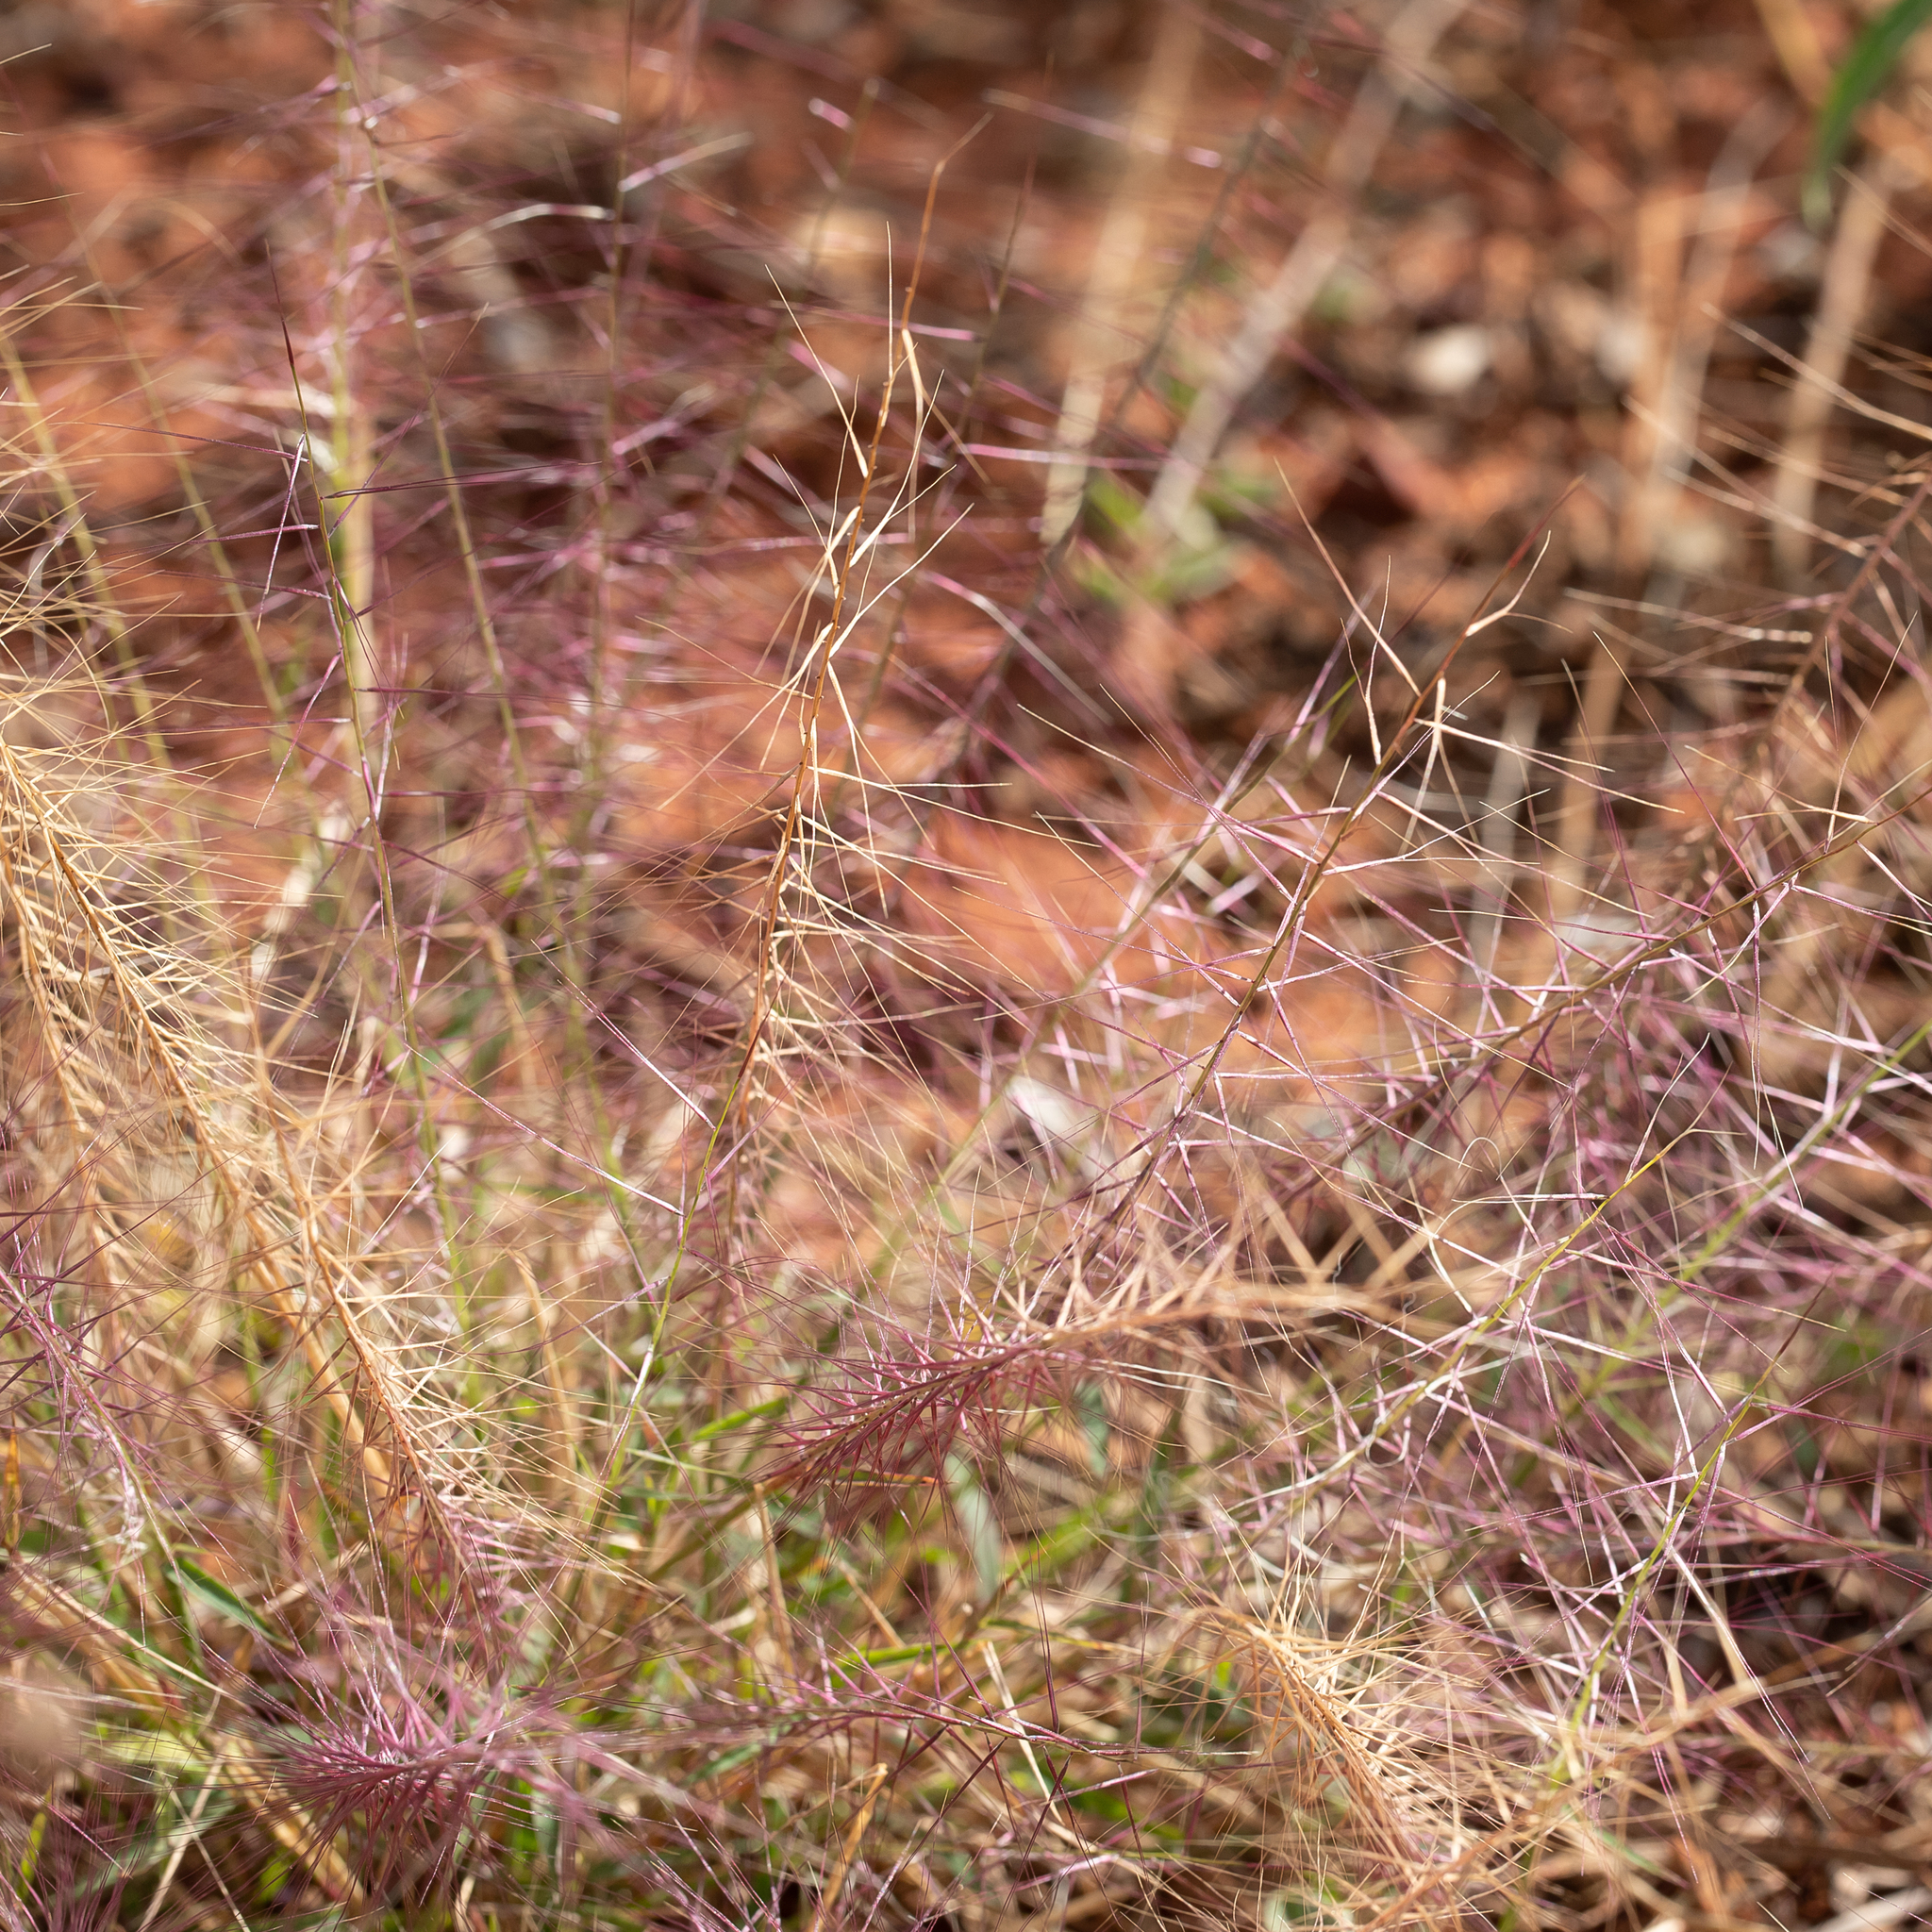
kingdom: Plantae
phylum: Tracheophyta
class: Liliopsida
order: Poales
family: Poaceae
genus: Perotis
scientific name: Perotis rara
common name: Comet grass
